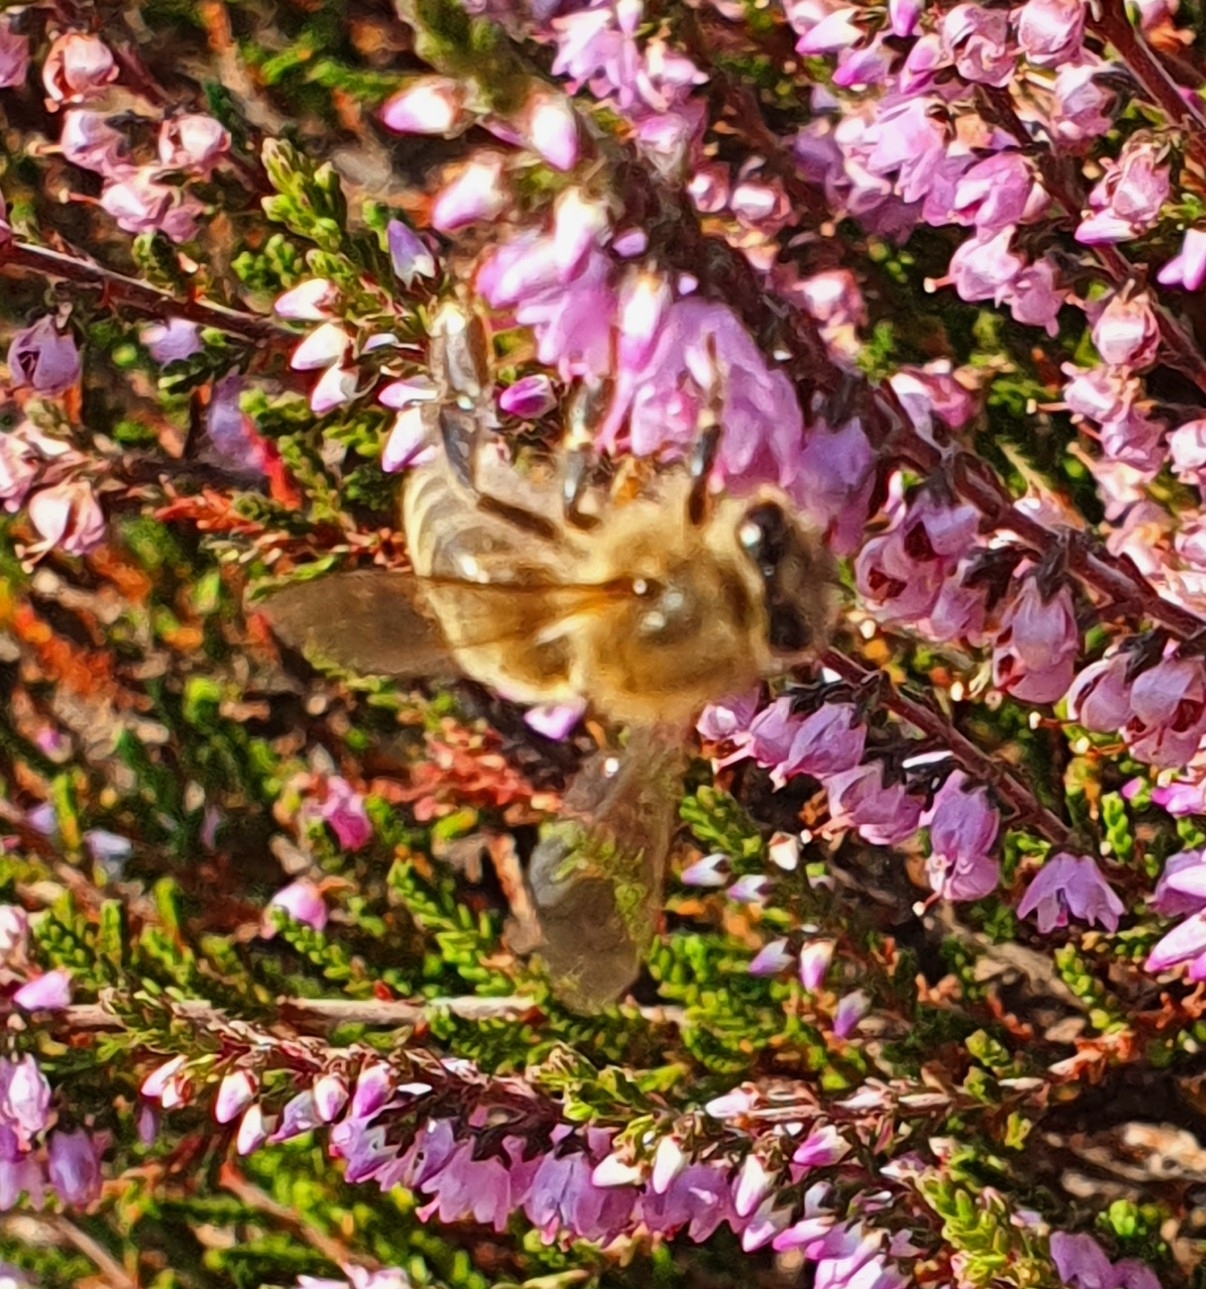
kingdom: Animalia
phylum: Arthropoda
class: Insecta
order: Hymenoptera
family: Apidae
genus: Apis
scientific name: Apis mellifera
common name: Honey bee
